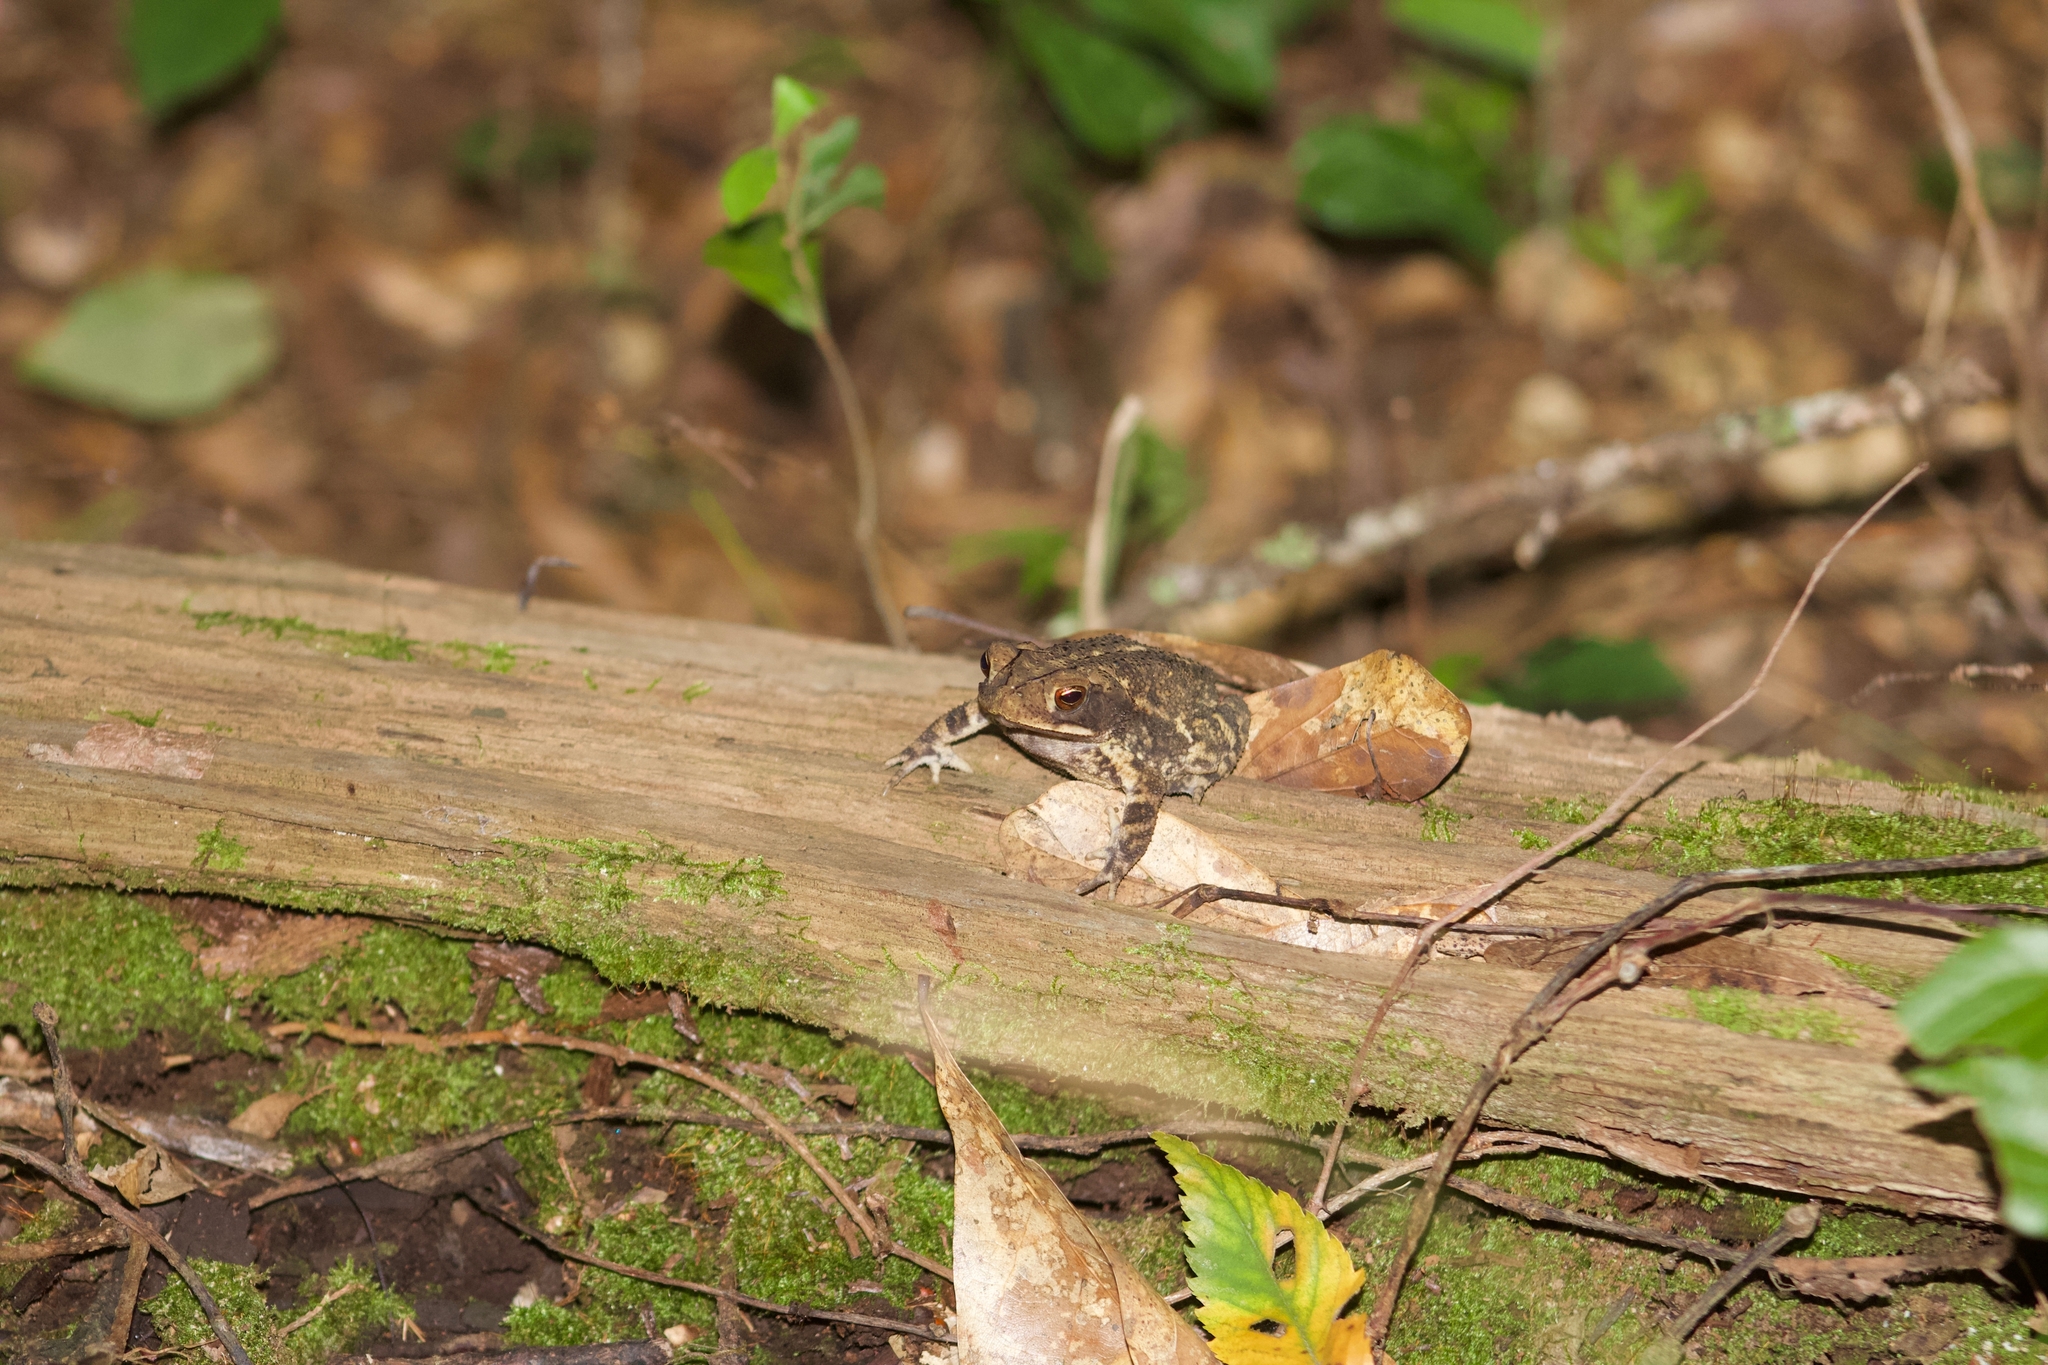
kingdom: Animalia
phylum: Chordata
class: Amphibia
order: Anura
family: Bufonidae
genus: Incilius
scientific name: Incilius nebulifer
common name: Gulf coast toad
